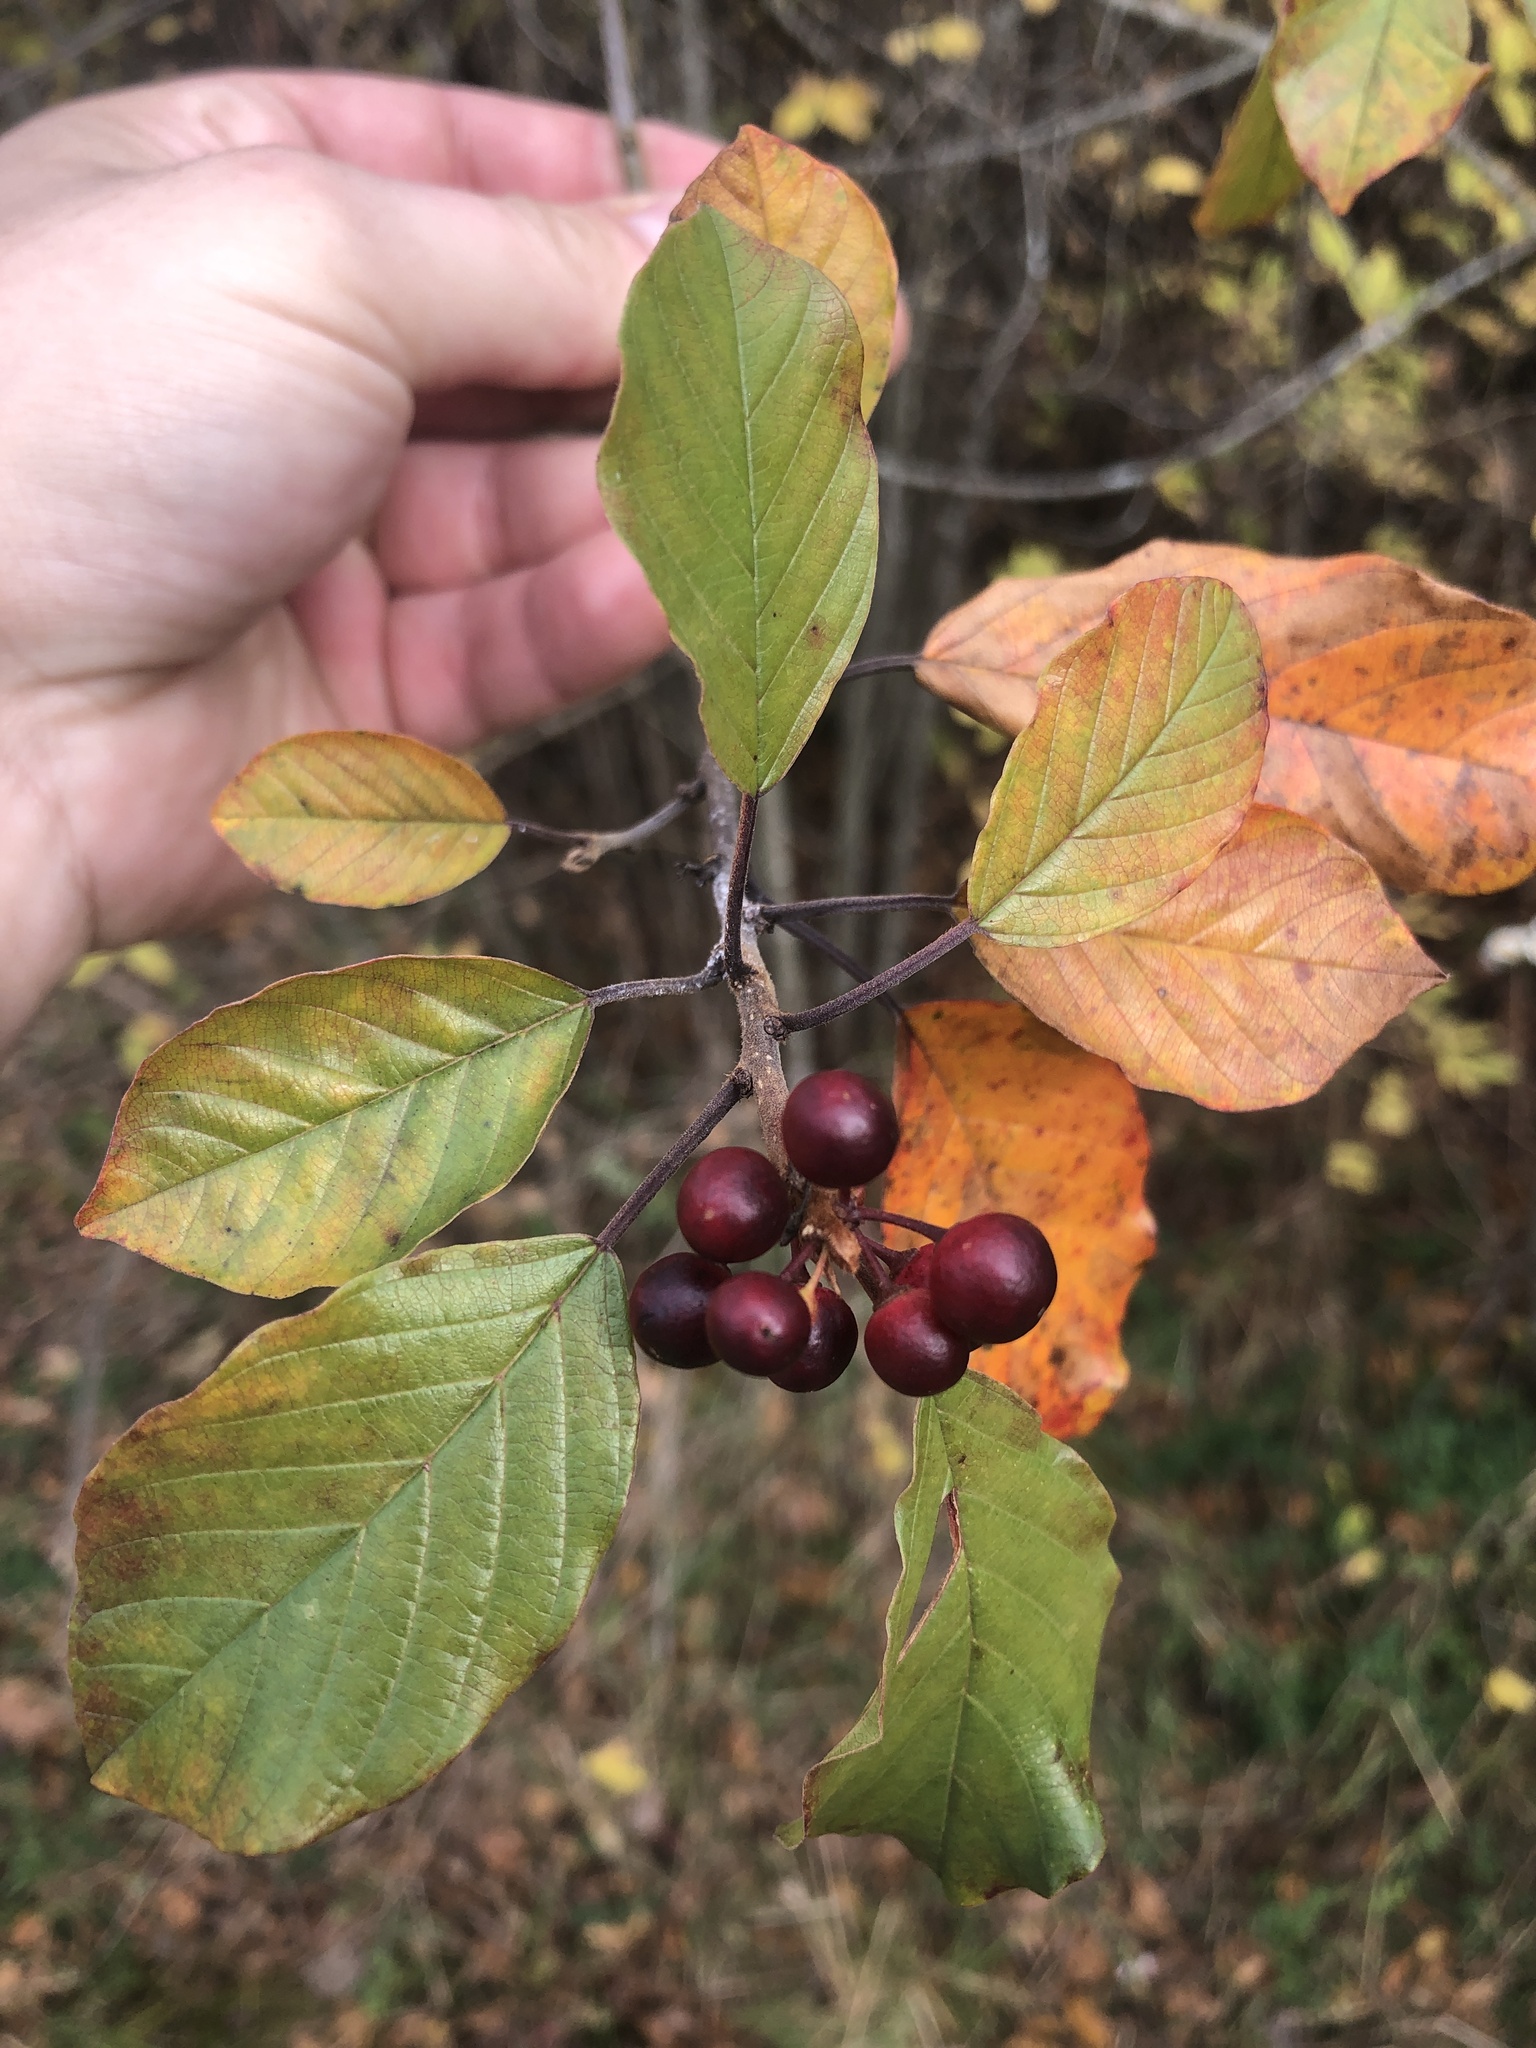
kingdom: Plantae
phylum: Tracheophyta
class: Magnoliopsida
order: Rosales
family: Rhamnaceae
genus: Frangula
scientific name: Frangula alnus
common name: Alder buckthorn
